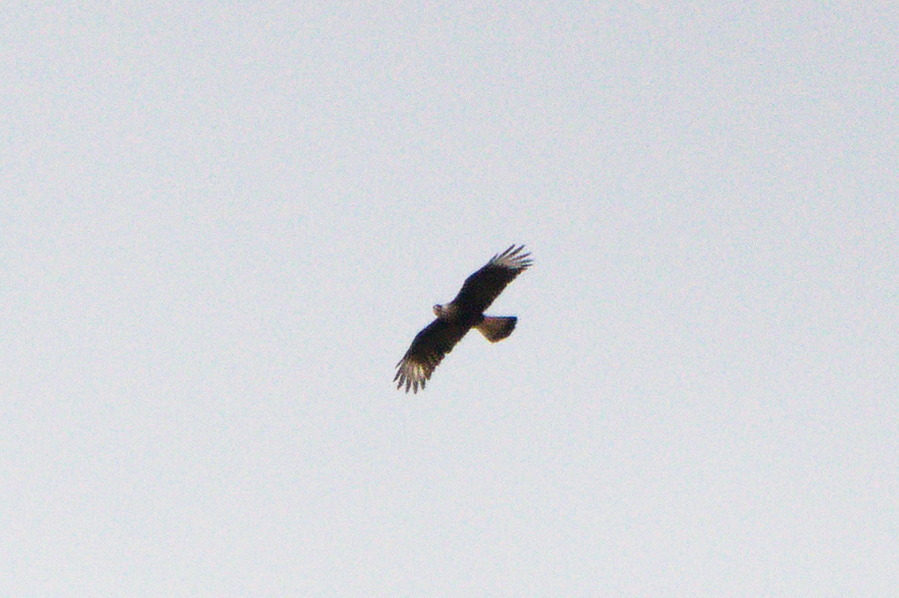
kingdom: Animalia
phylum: Chordata
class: Aves
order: Falconiformes
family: Falconidae
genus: Caracara
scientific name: Caracara plancus
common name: Southern caracara
